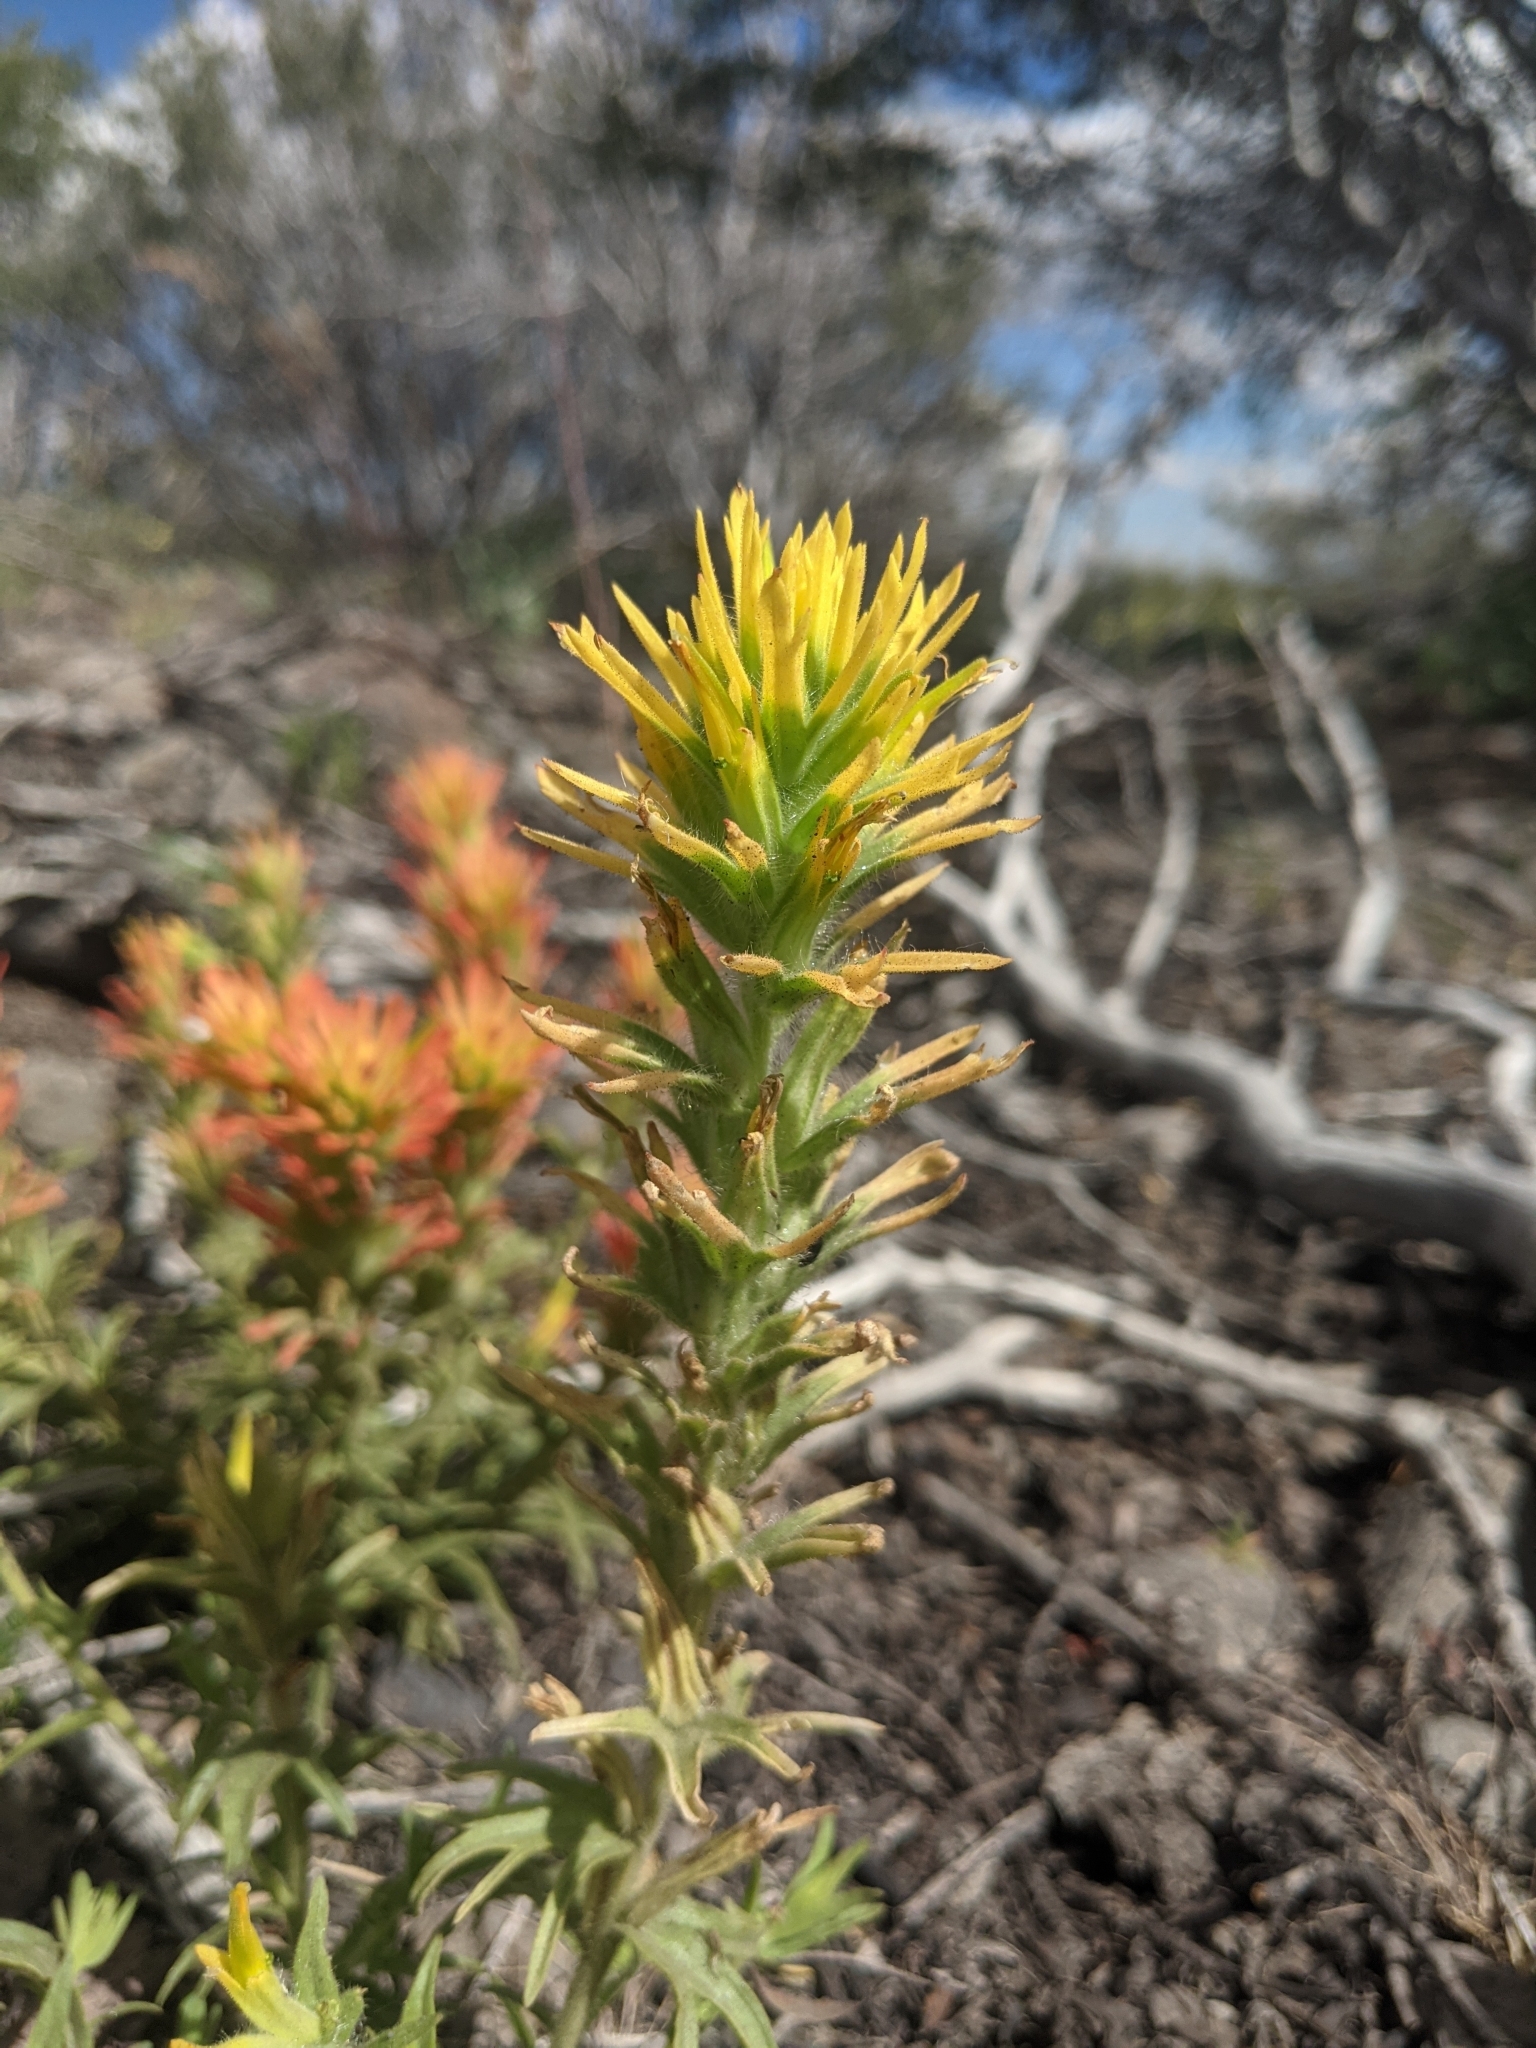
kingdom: Plantae
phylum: Tracheophyta
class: Magnoliopsida
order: Lamiales
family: Orobanchaceae
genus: Castilleja
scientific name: Castilleja applegatei
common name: Wavy-leaf paintbrush
